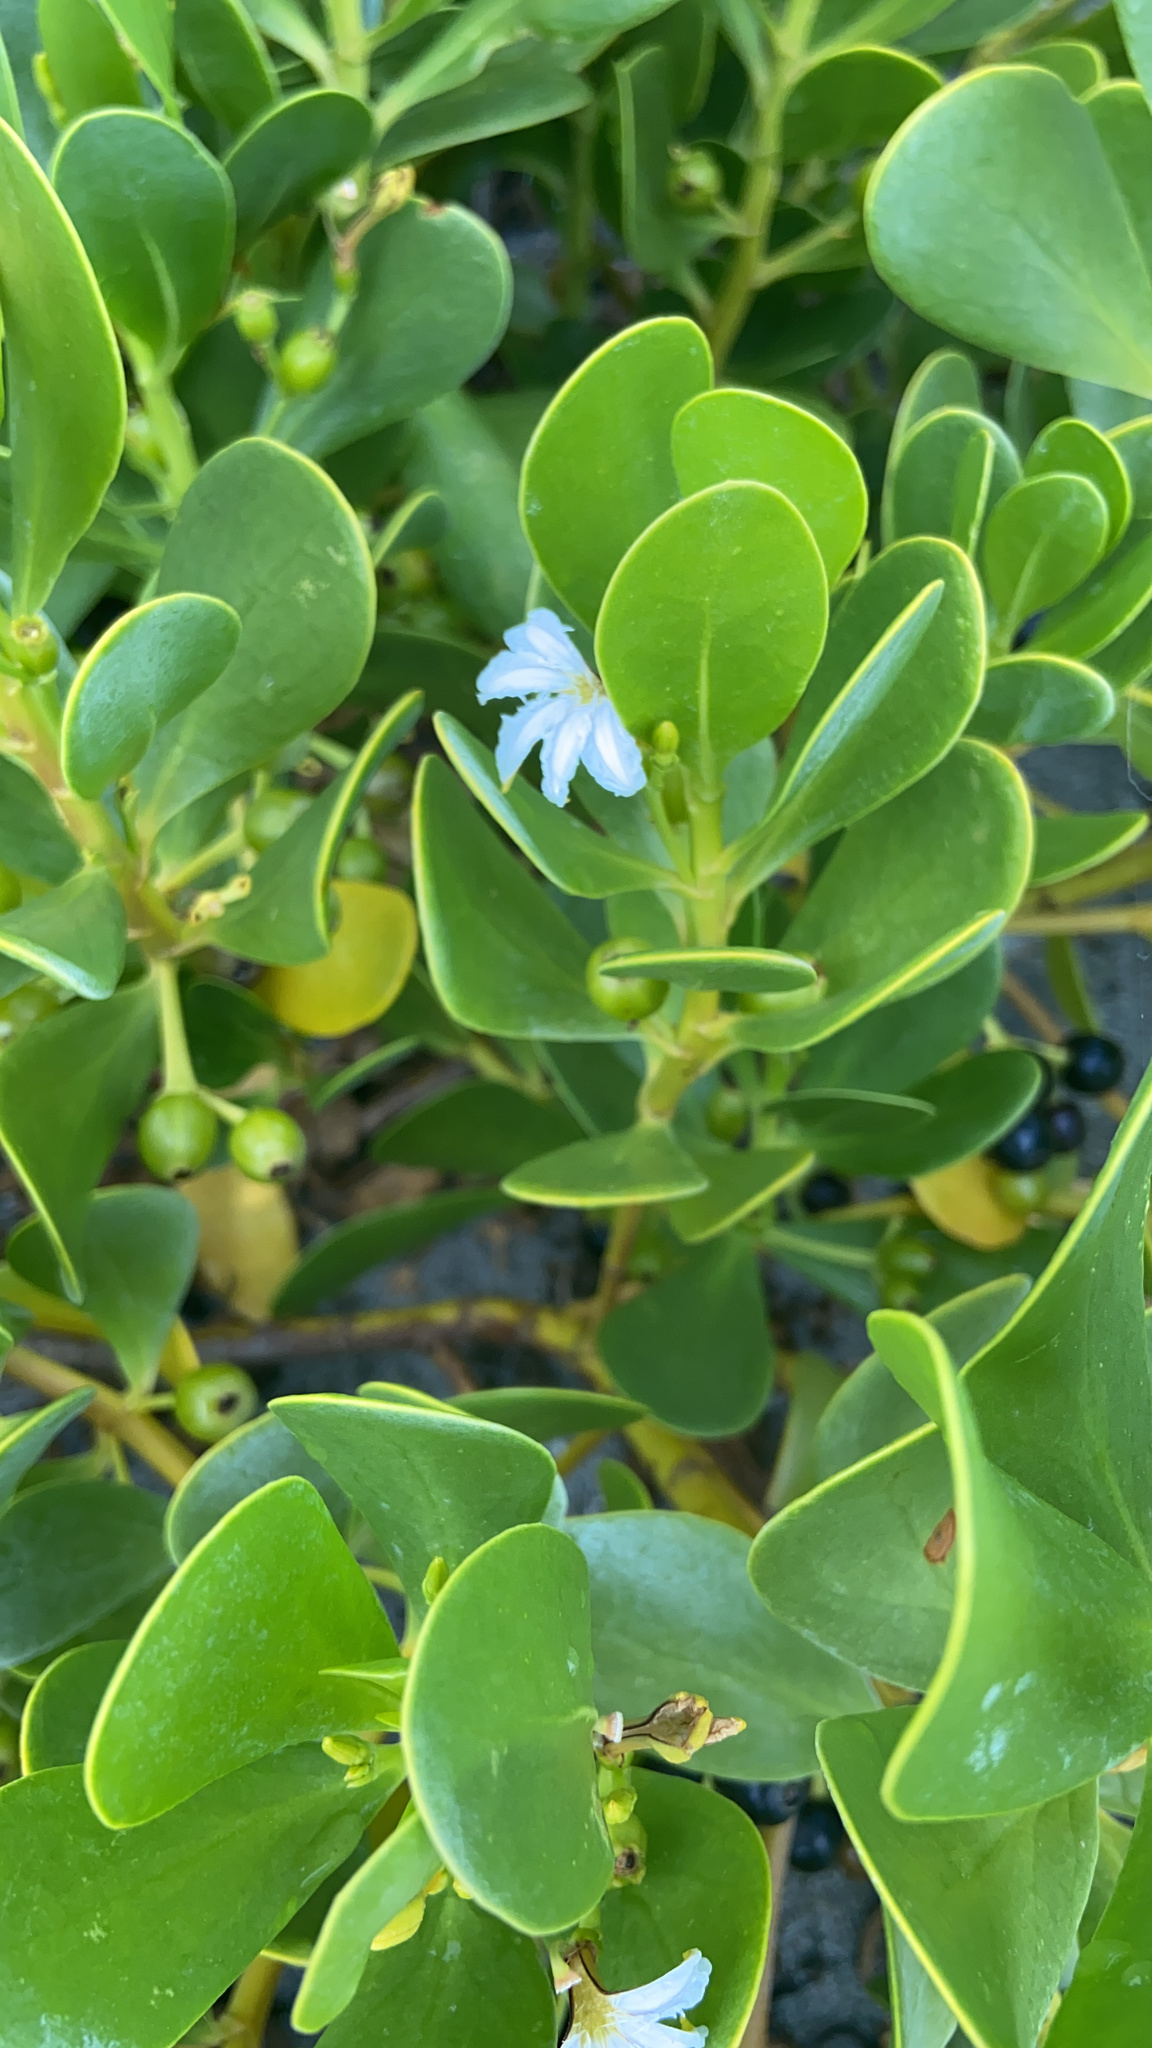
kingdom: Plantae
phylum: Tracheophyta
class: Magnoliopsida
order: Asterales
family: Goodeniaceae
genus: Scaevola
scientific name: Scaevola plumieri
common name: Gull feed
